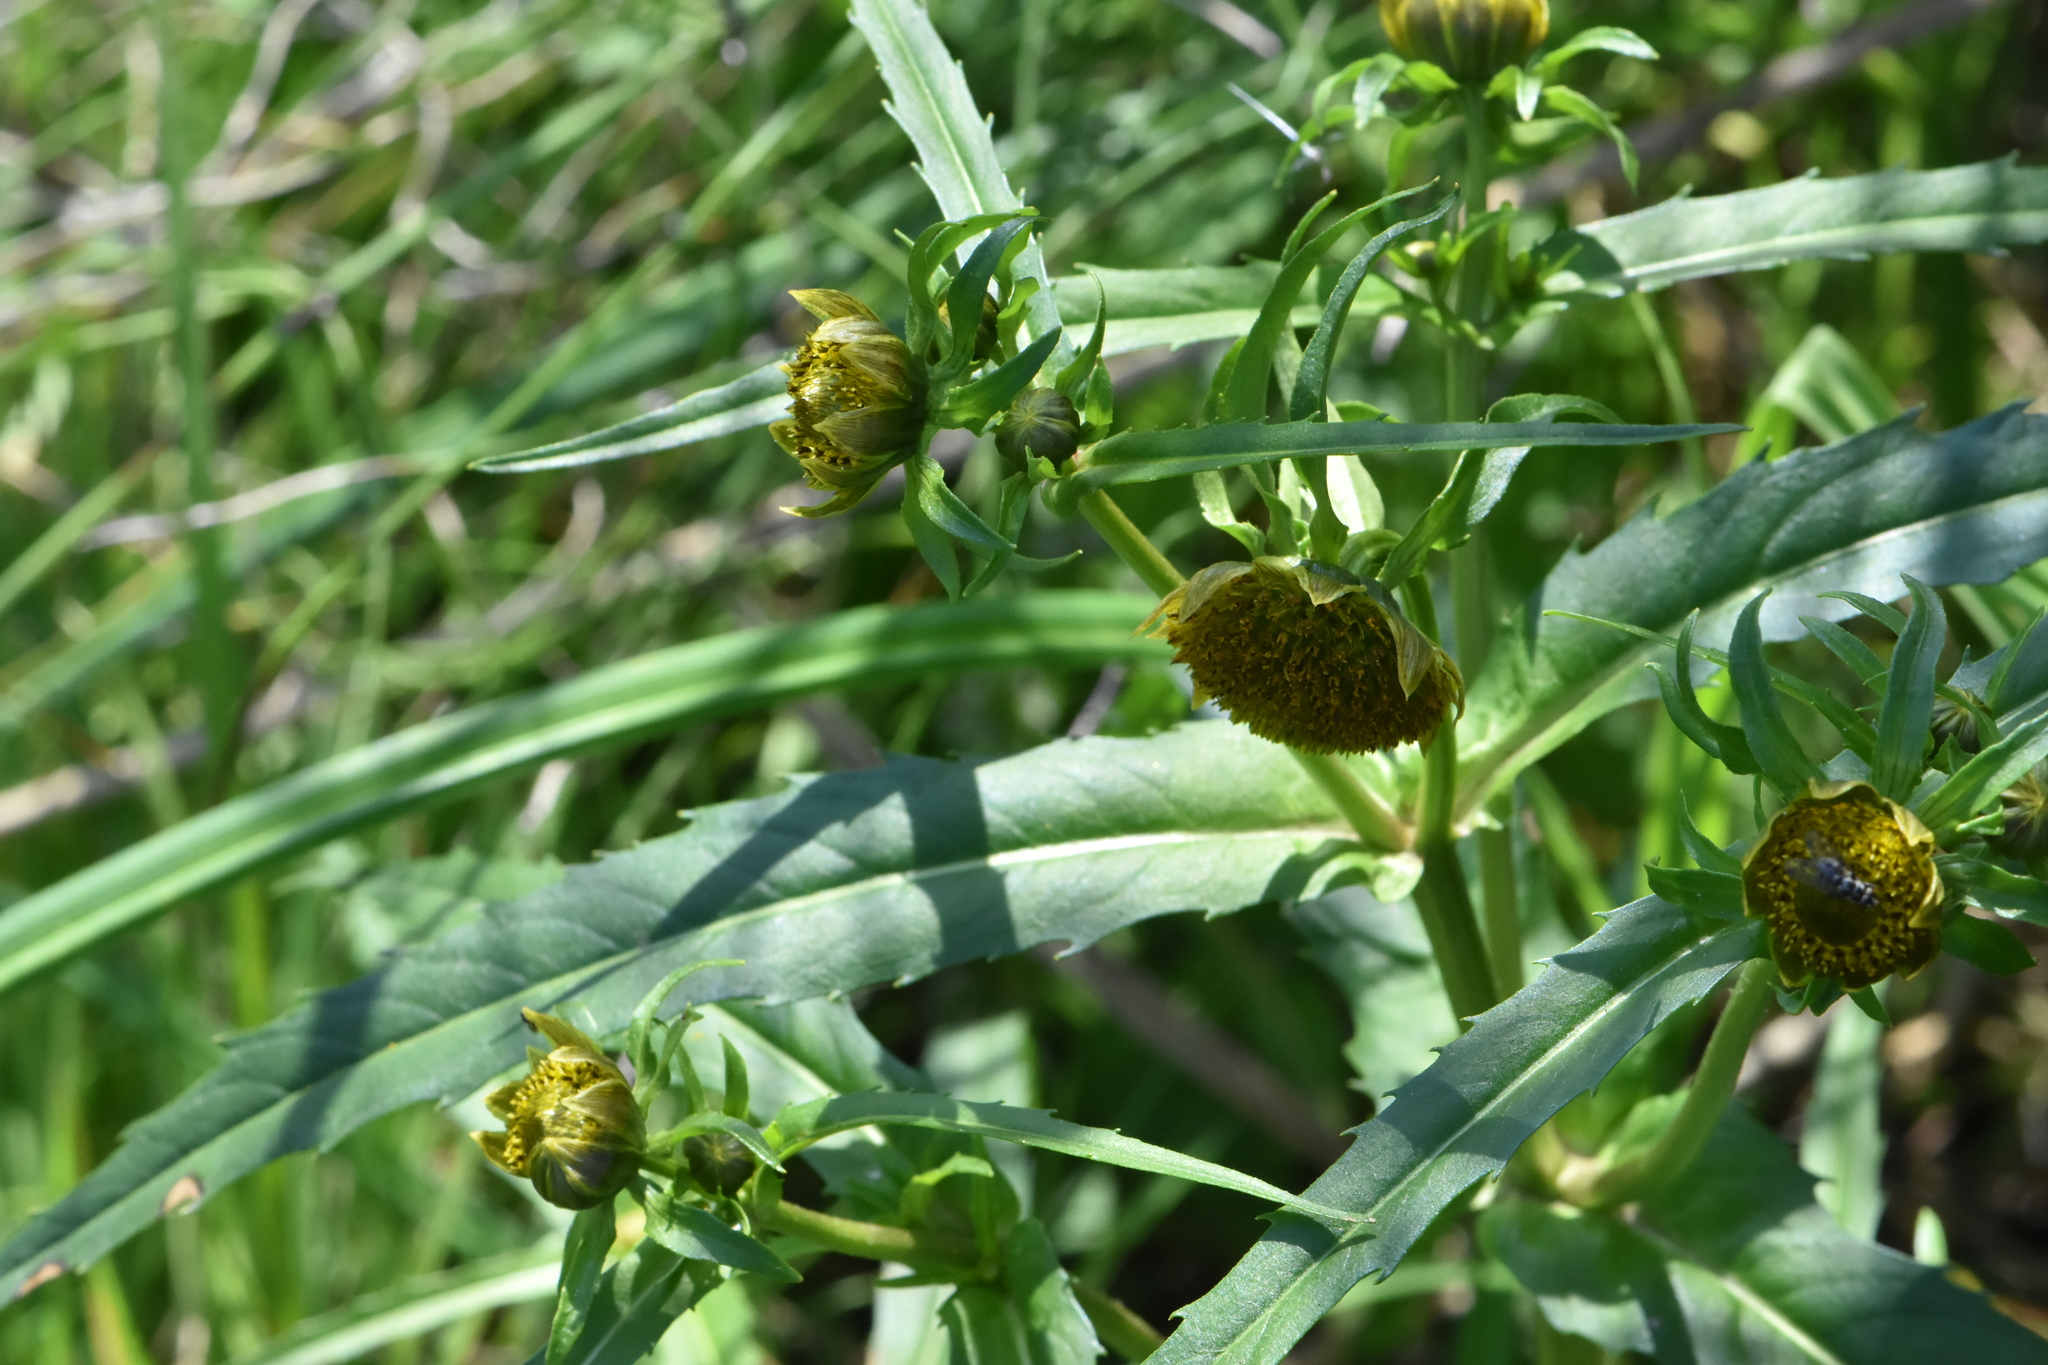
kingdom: Plantae
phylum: Tracheophyta
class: Magnoliopsida
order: Asterales
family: Asteraceae
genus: Bidens
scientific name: Bidens cernua
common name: Nodding bur-marigold
